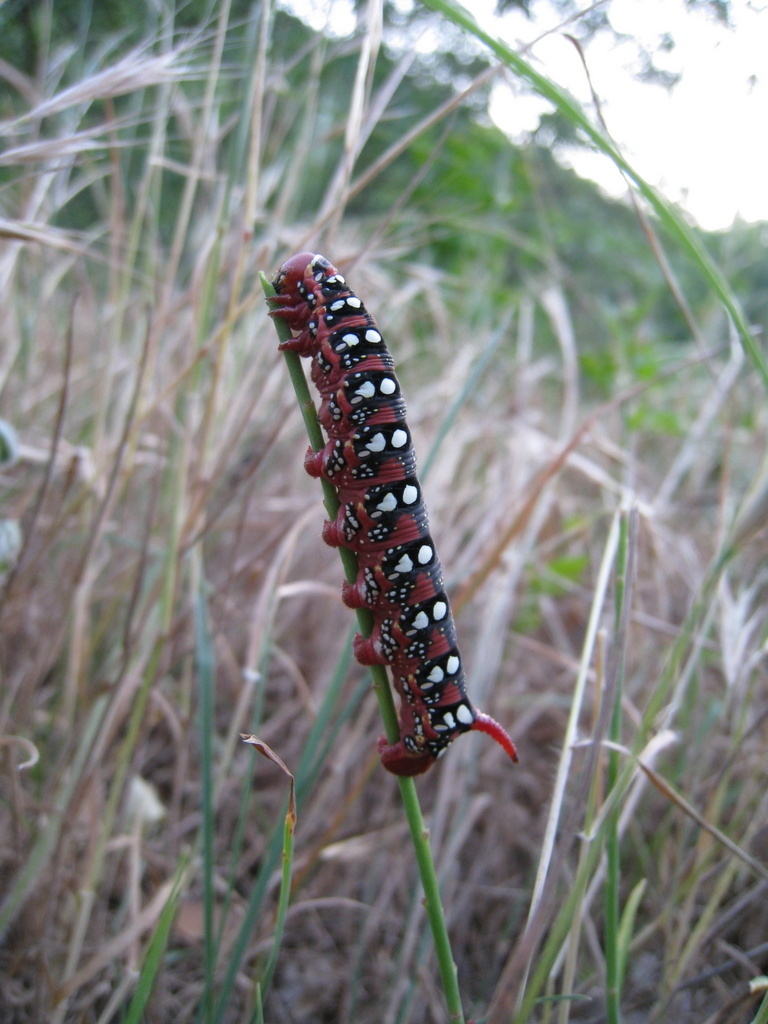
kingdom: Animalia
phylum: Arthropoda
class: Insecta
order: Lepidoptera
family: Sphingidae
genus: Hyles
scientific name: Hyles euphorbiae
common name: Spurge hawk-moth
